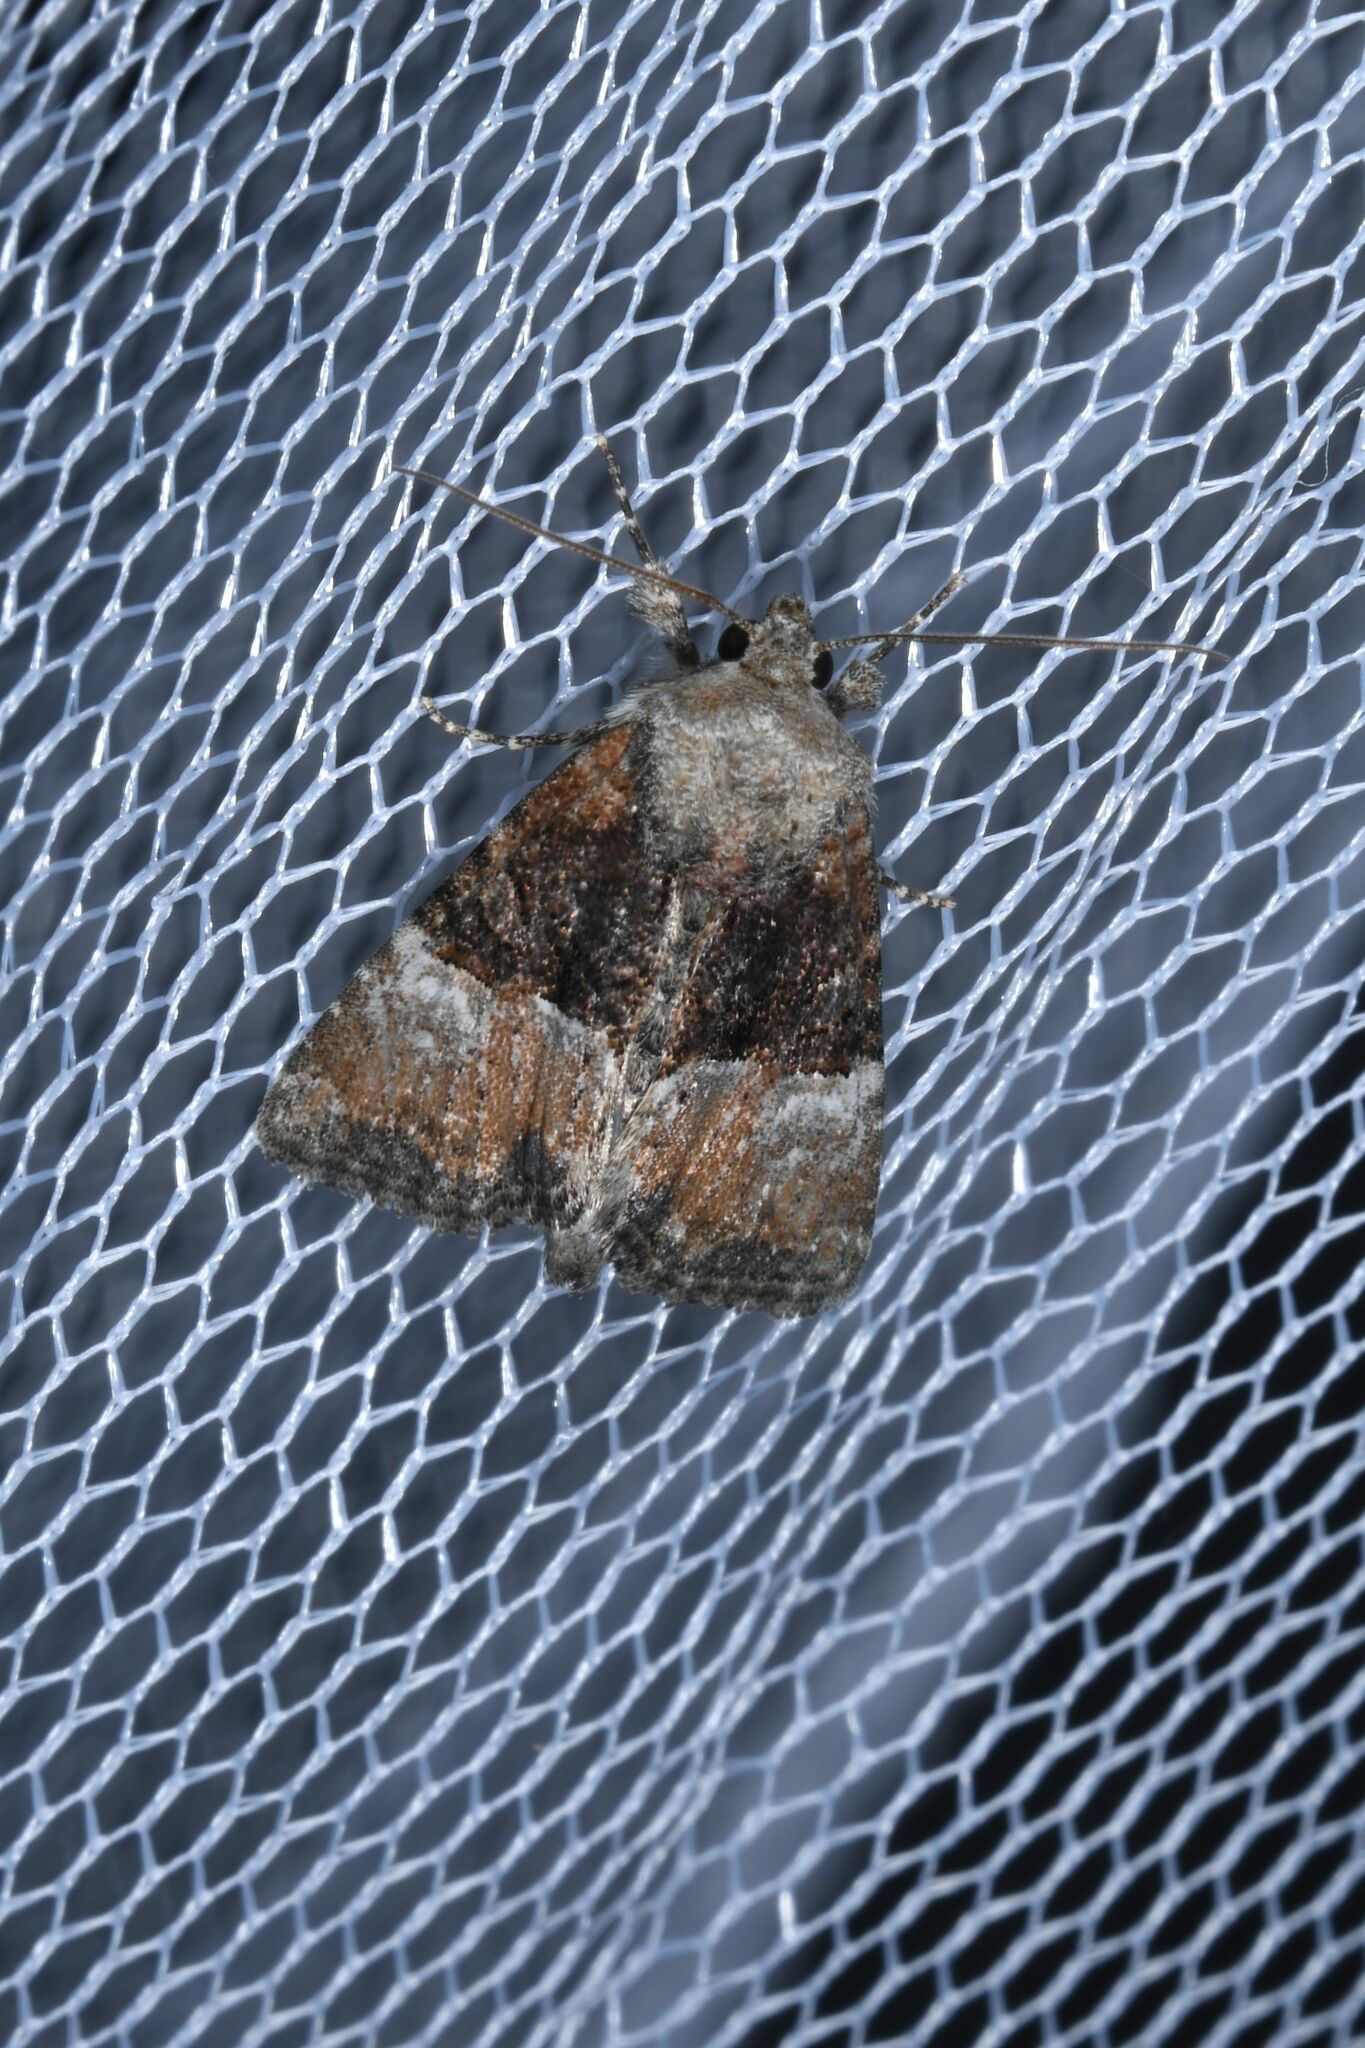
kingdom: Animalia
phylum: Arthropoda
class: Insecta
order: Lepidoptera
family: Noctuidae
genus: Mesoligia
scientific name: Mesoligia furuncula
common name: Cloaked minor
